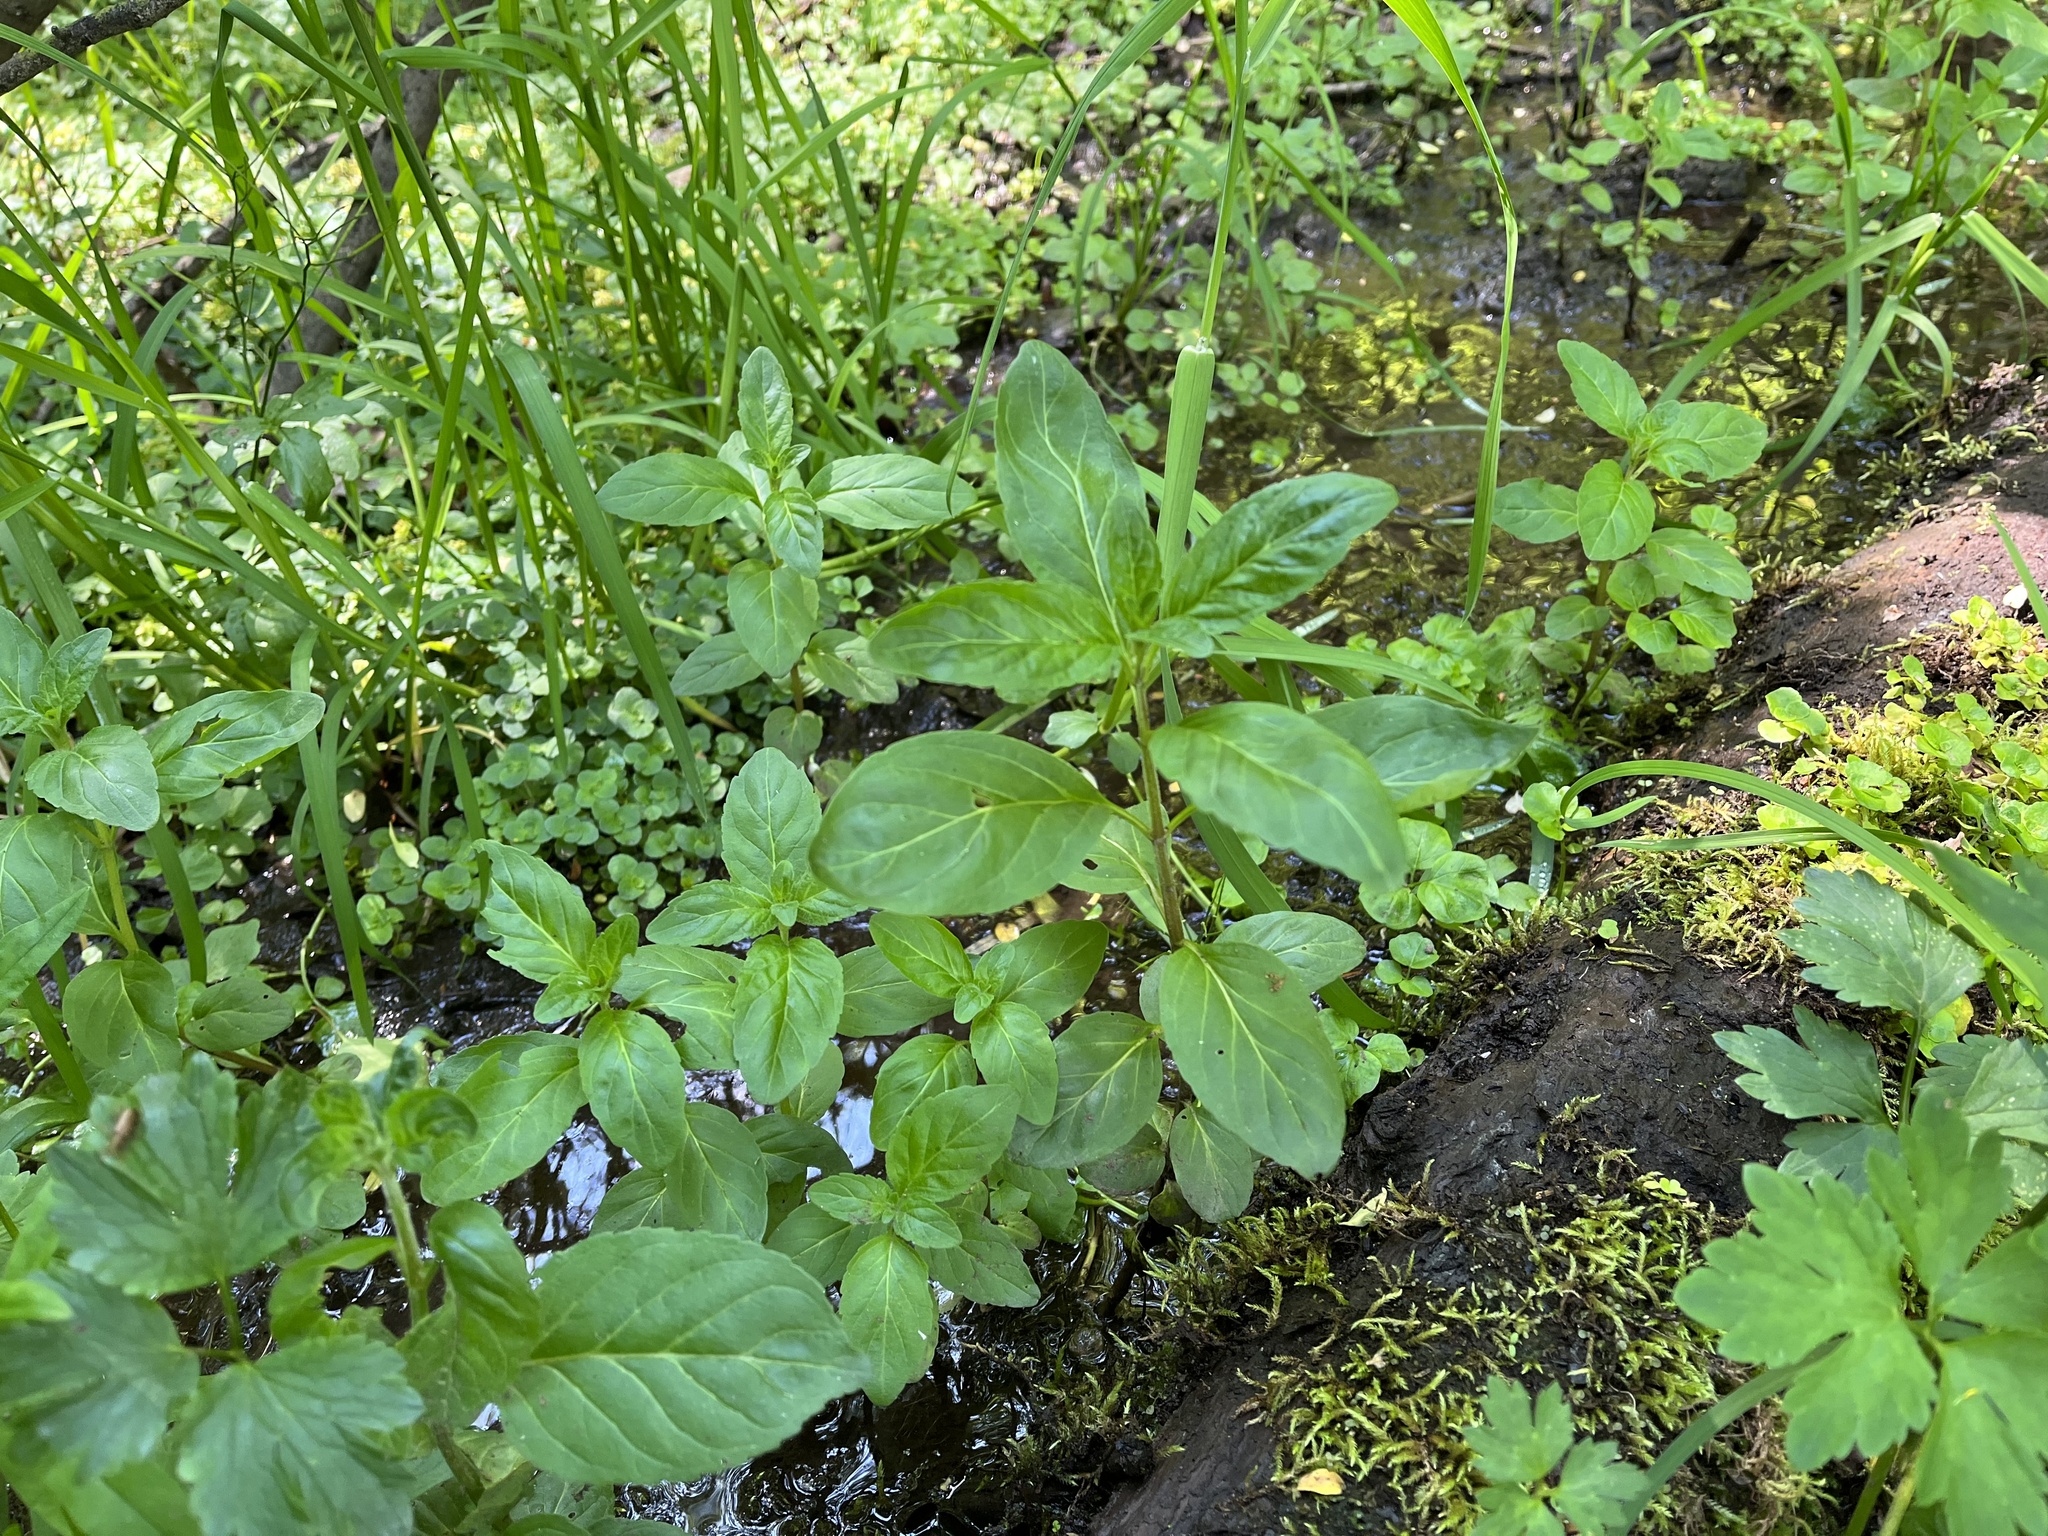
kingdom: Plantae
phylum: Tracheophyta
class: Magnoliopsida
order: Lamiales
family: Plantaginaceae
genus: Veronica
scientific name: Veronica beccabunga
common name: Brooklime
